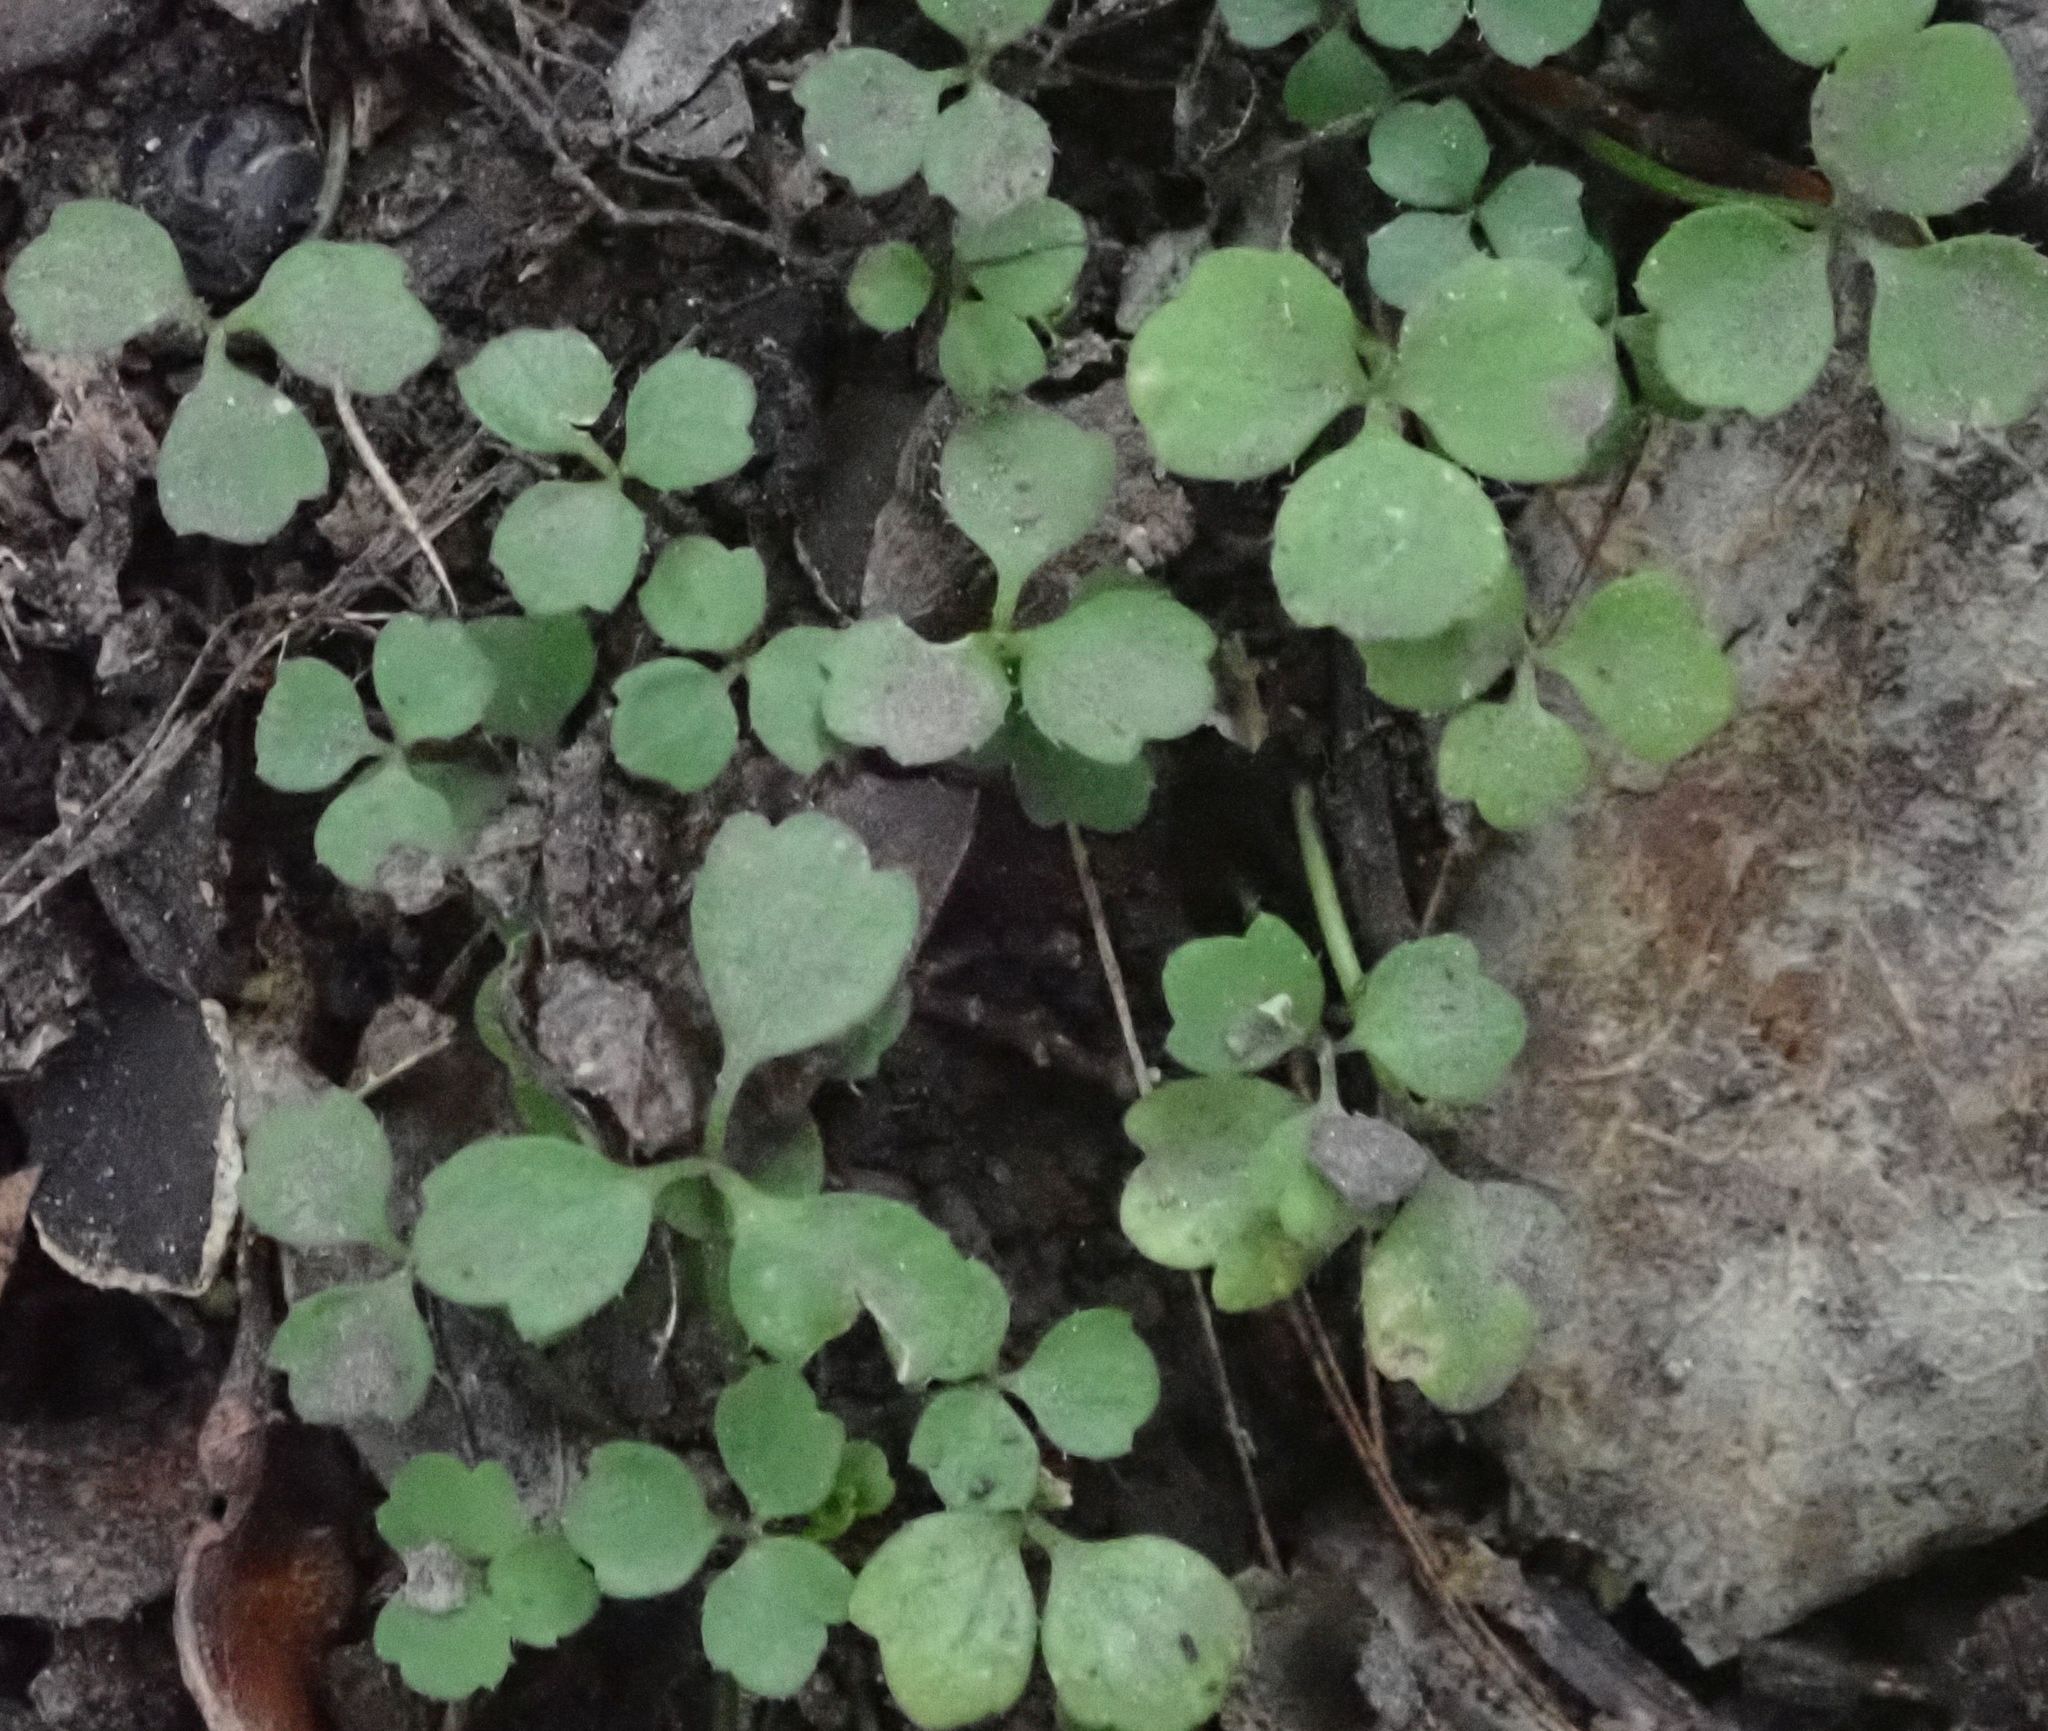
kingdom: Plantae
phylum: Tracheophyta
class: Magnoliopsida
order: Apiales
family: Apiaceae
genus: Azorella
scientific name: Azorella hookeri
